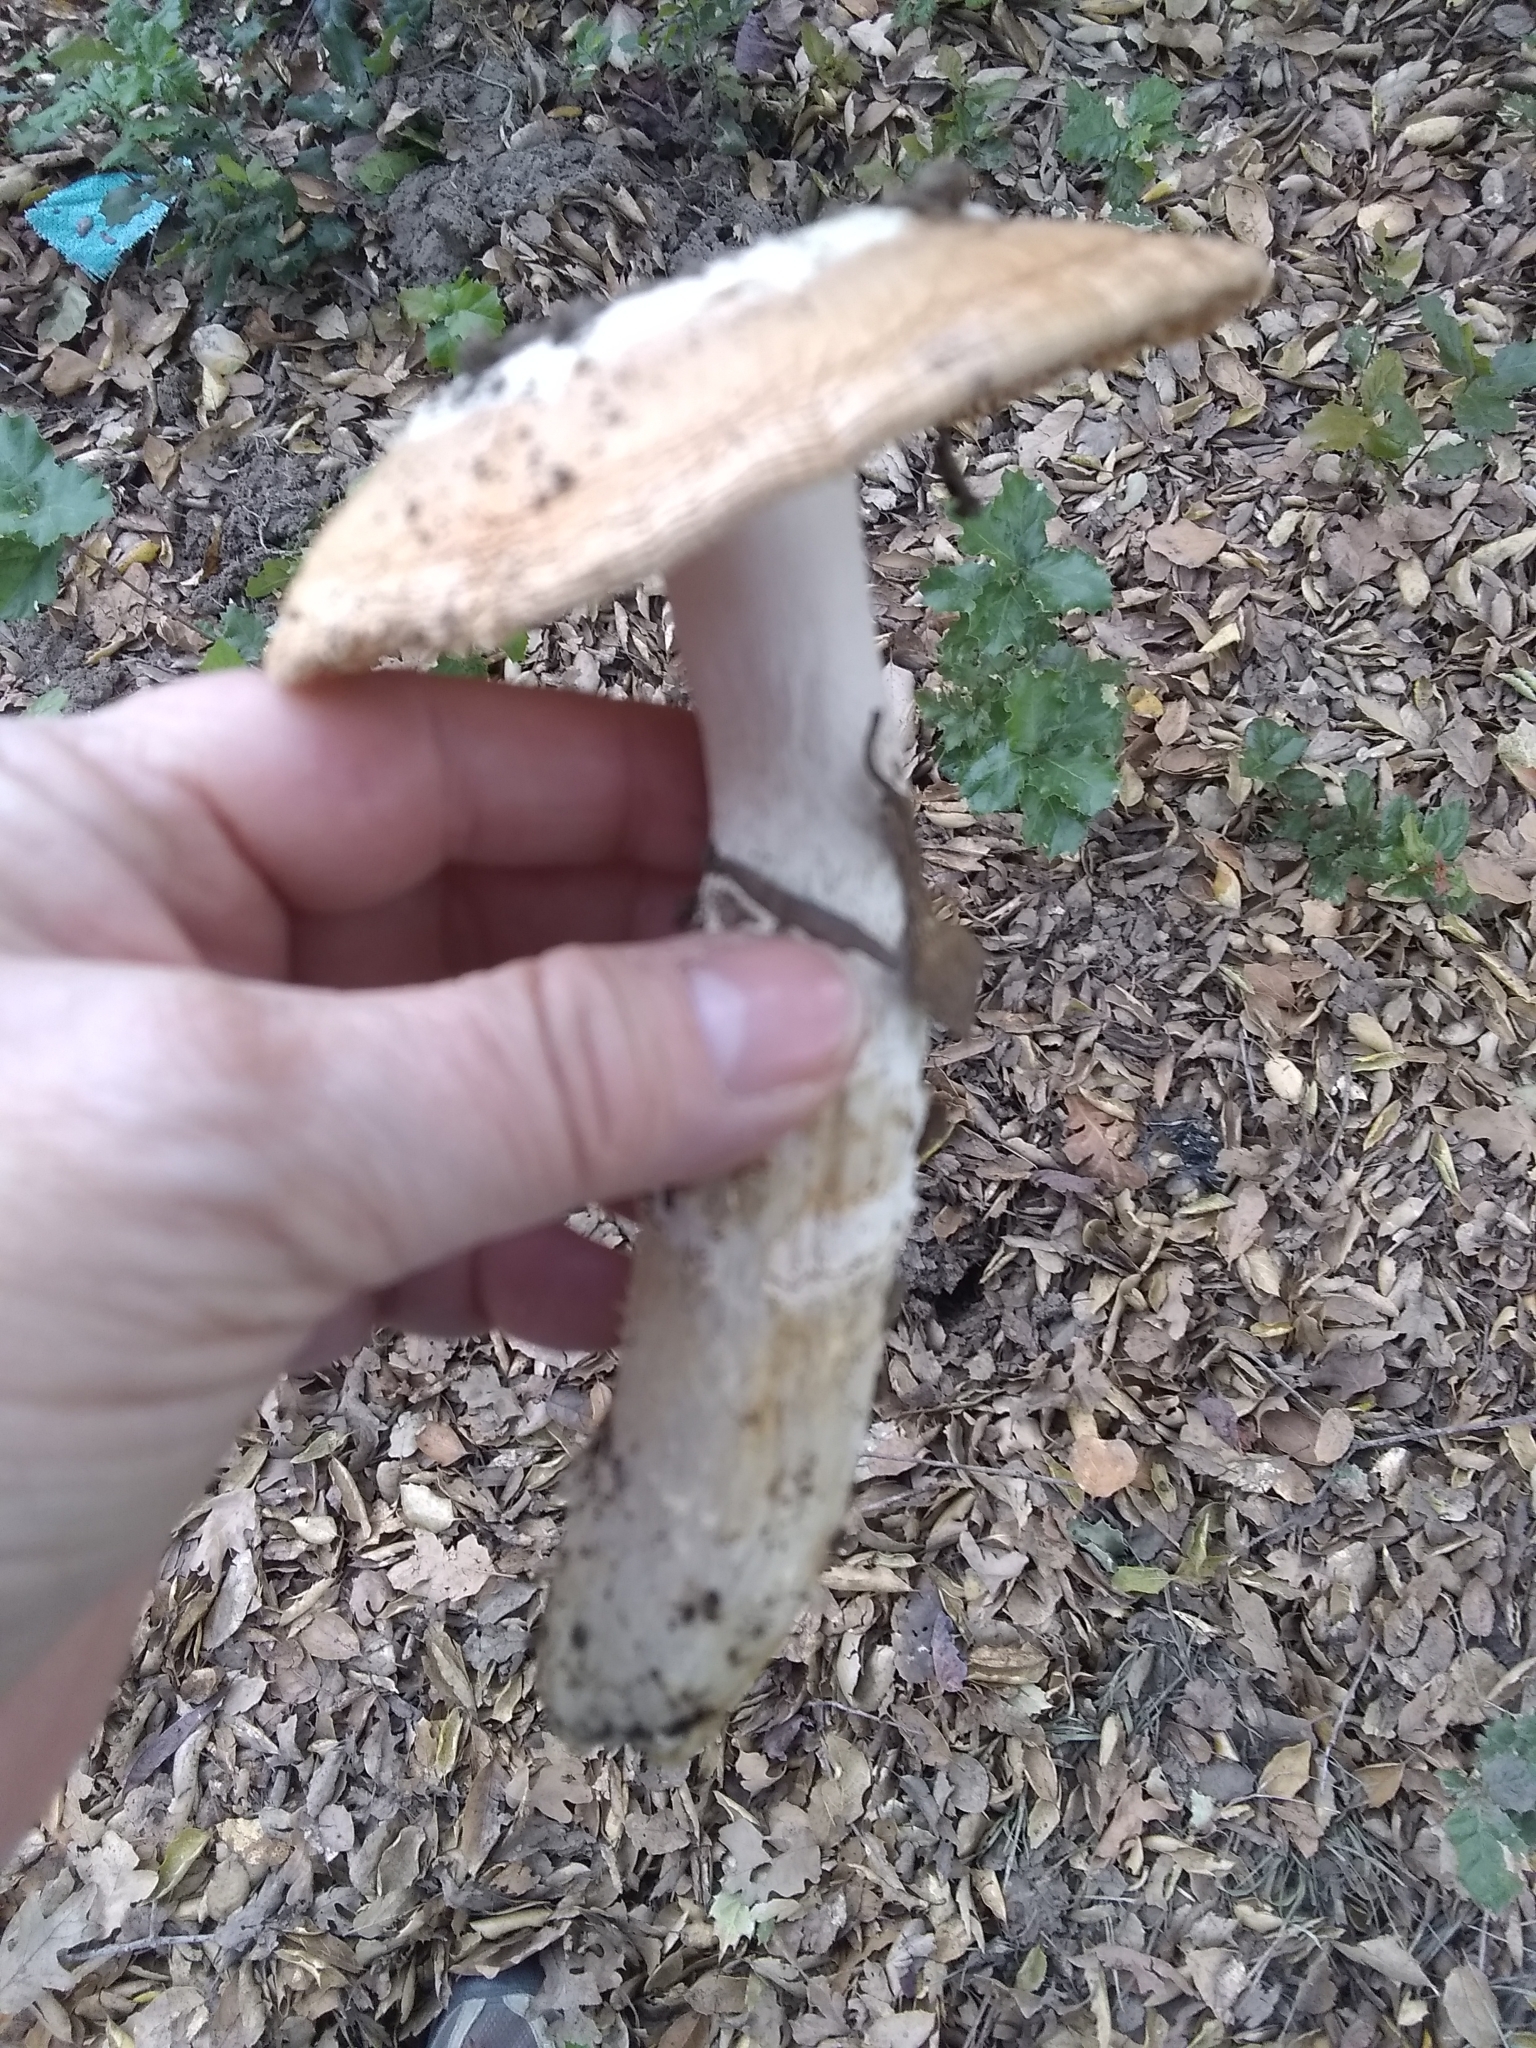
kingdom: Fungi
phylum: Basidiomycota
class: Agaricomycetes
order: Agaricales
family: Amanitaceae
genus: Amanita
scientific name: Amanita velosa
